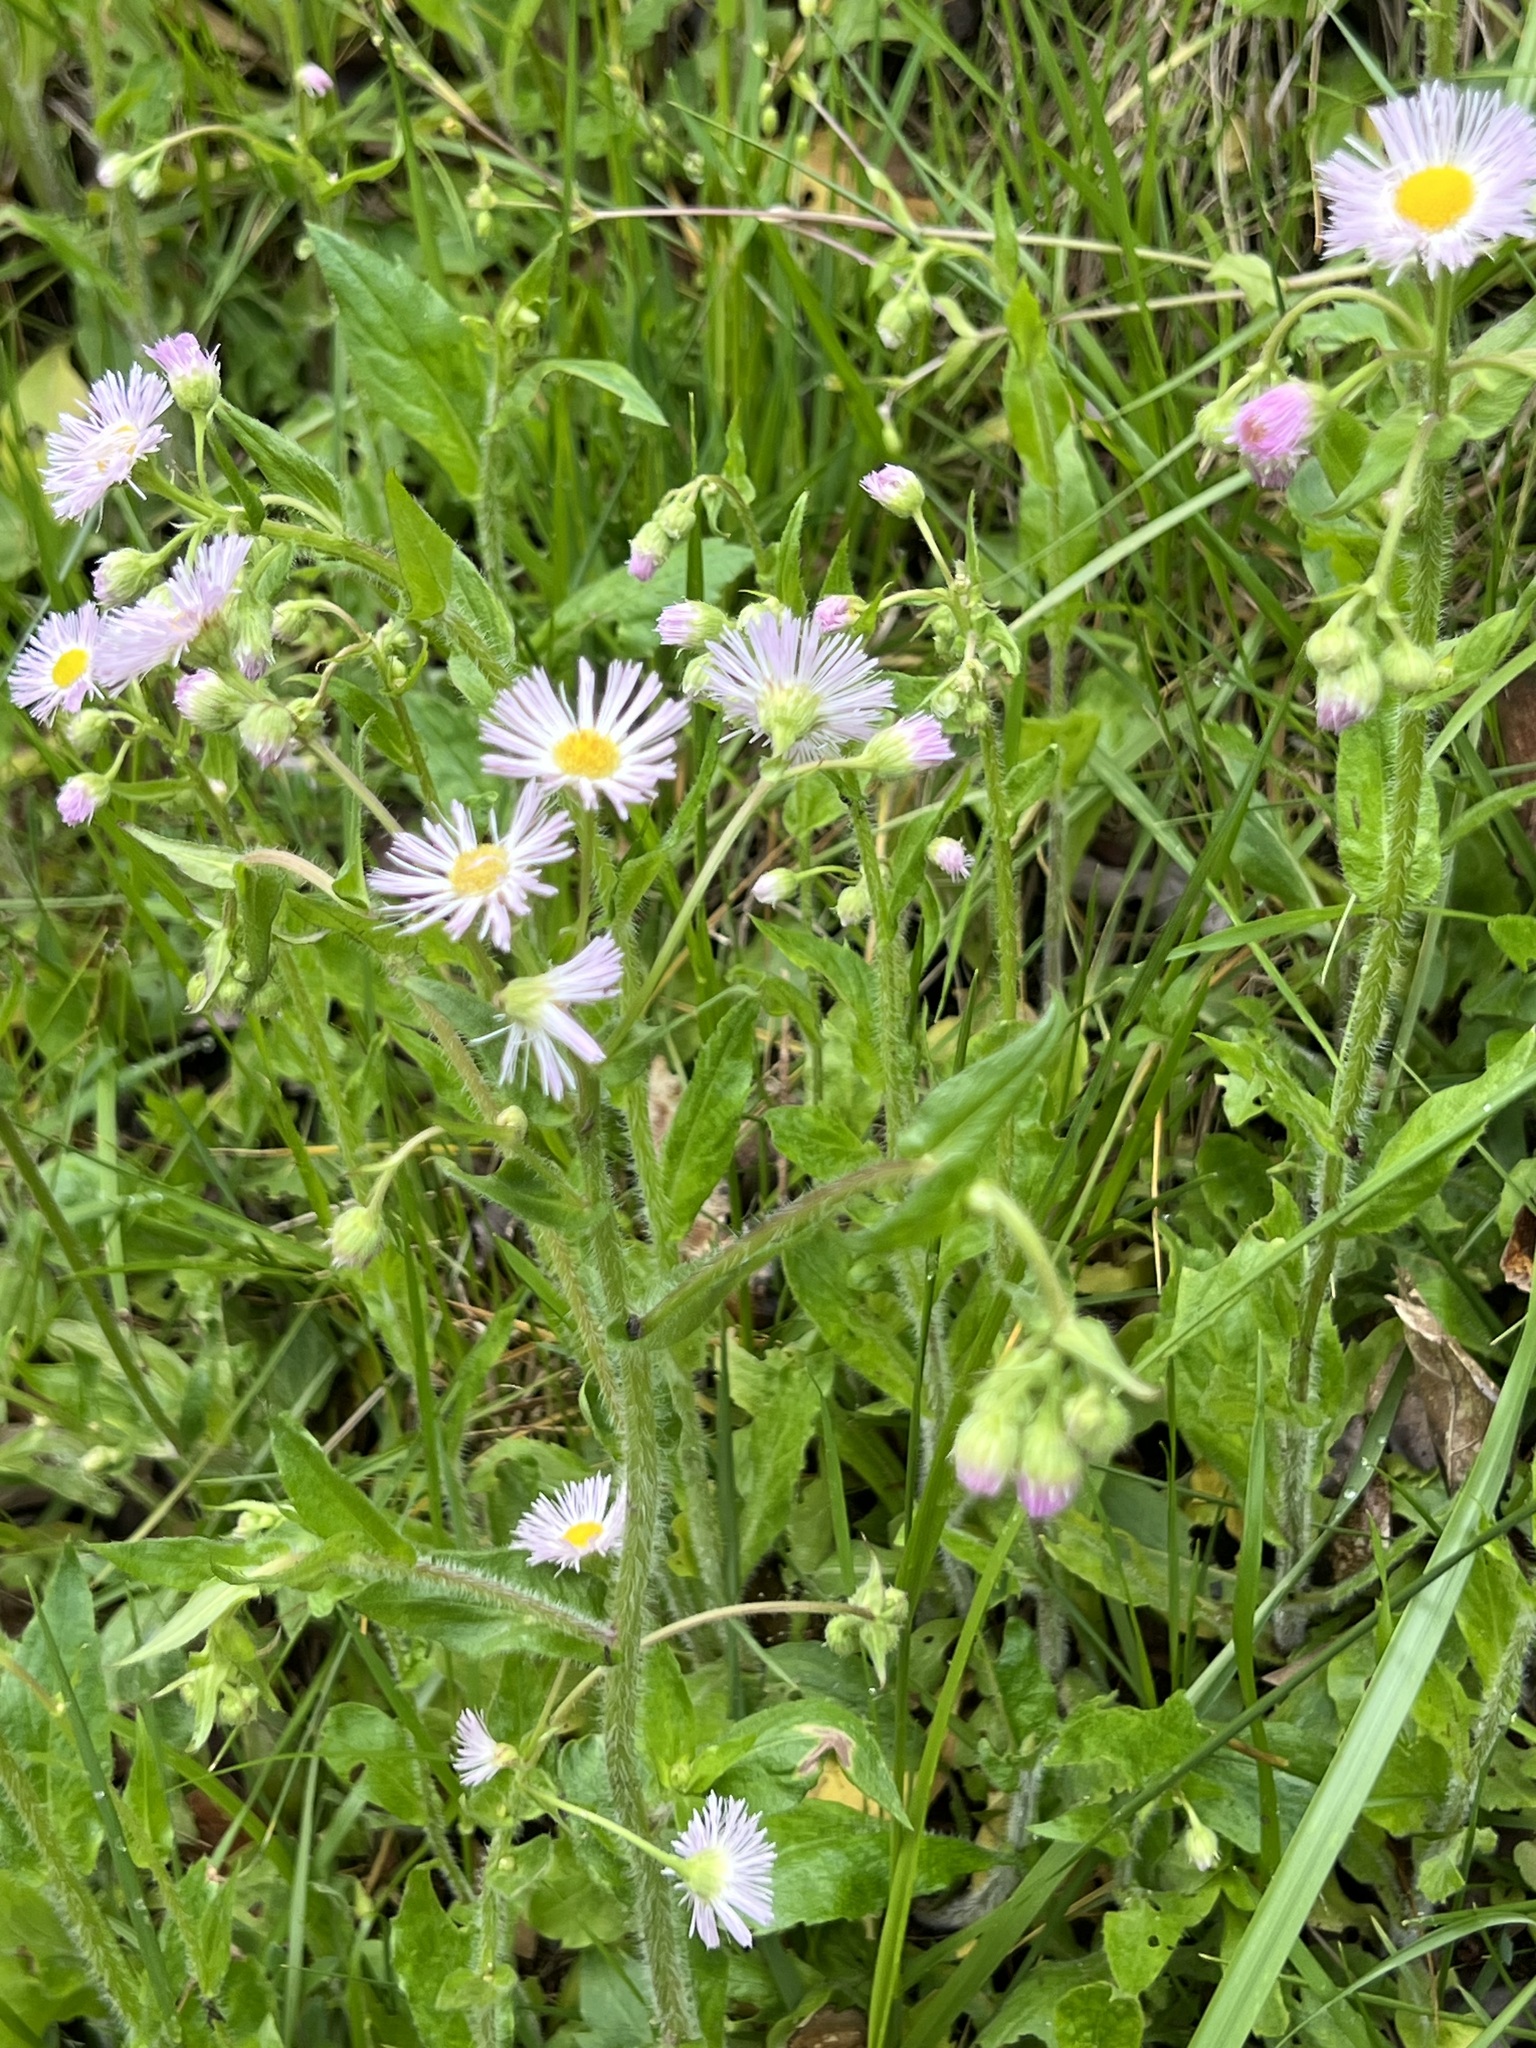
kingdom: Plantae
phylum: Tracheophyta
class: Magnoliopsida
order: Asterales
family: Asteraceae
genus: Erigeron
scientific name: Erigeron philadelphicus
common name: Robin's-plantain
